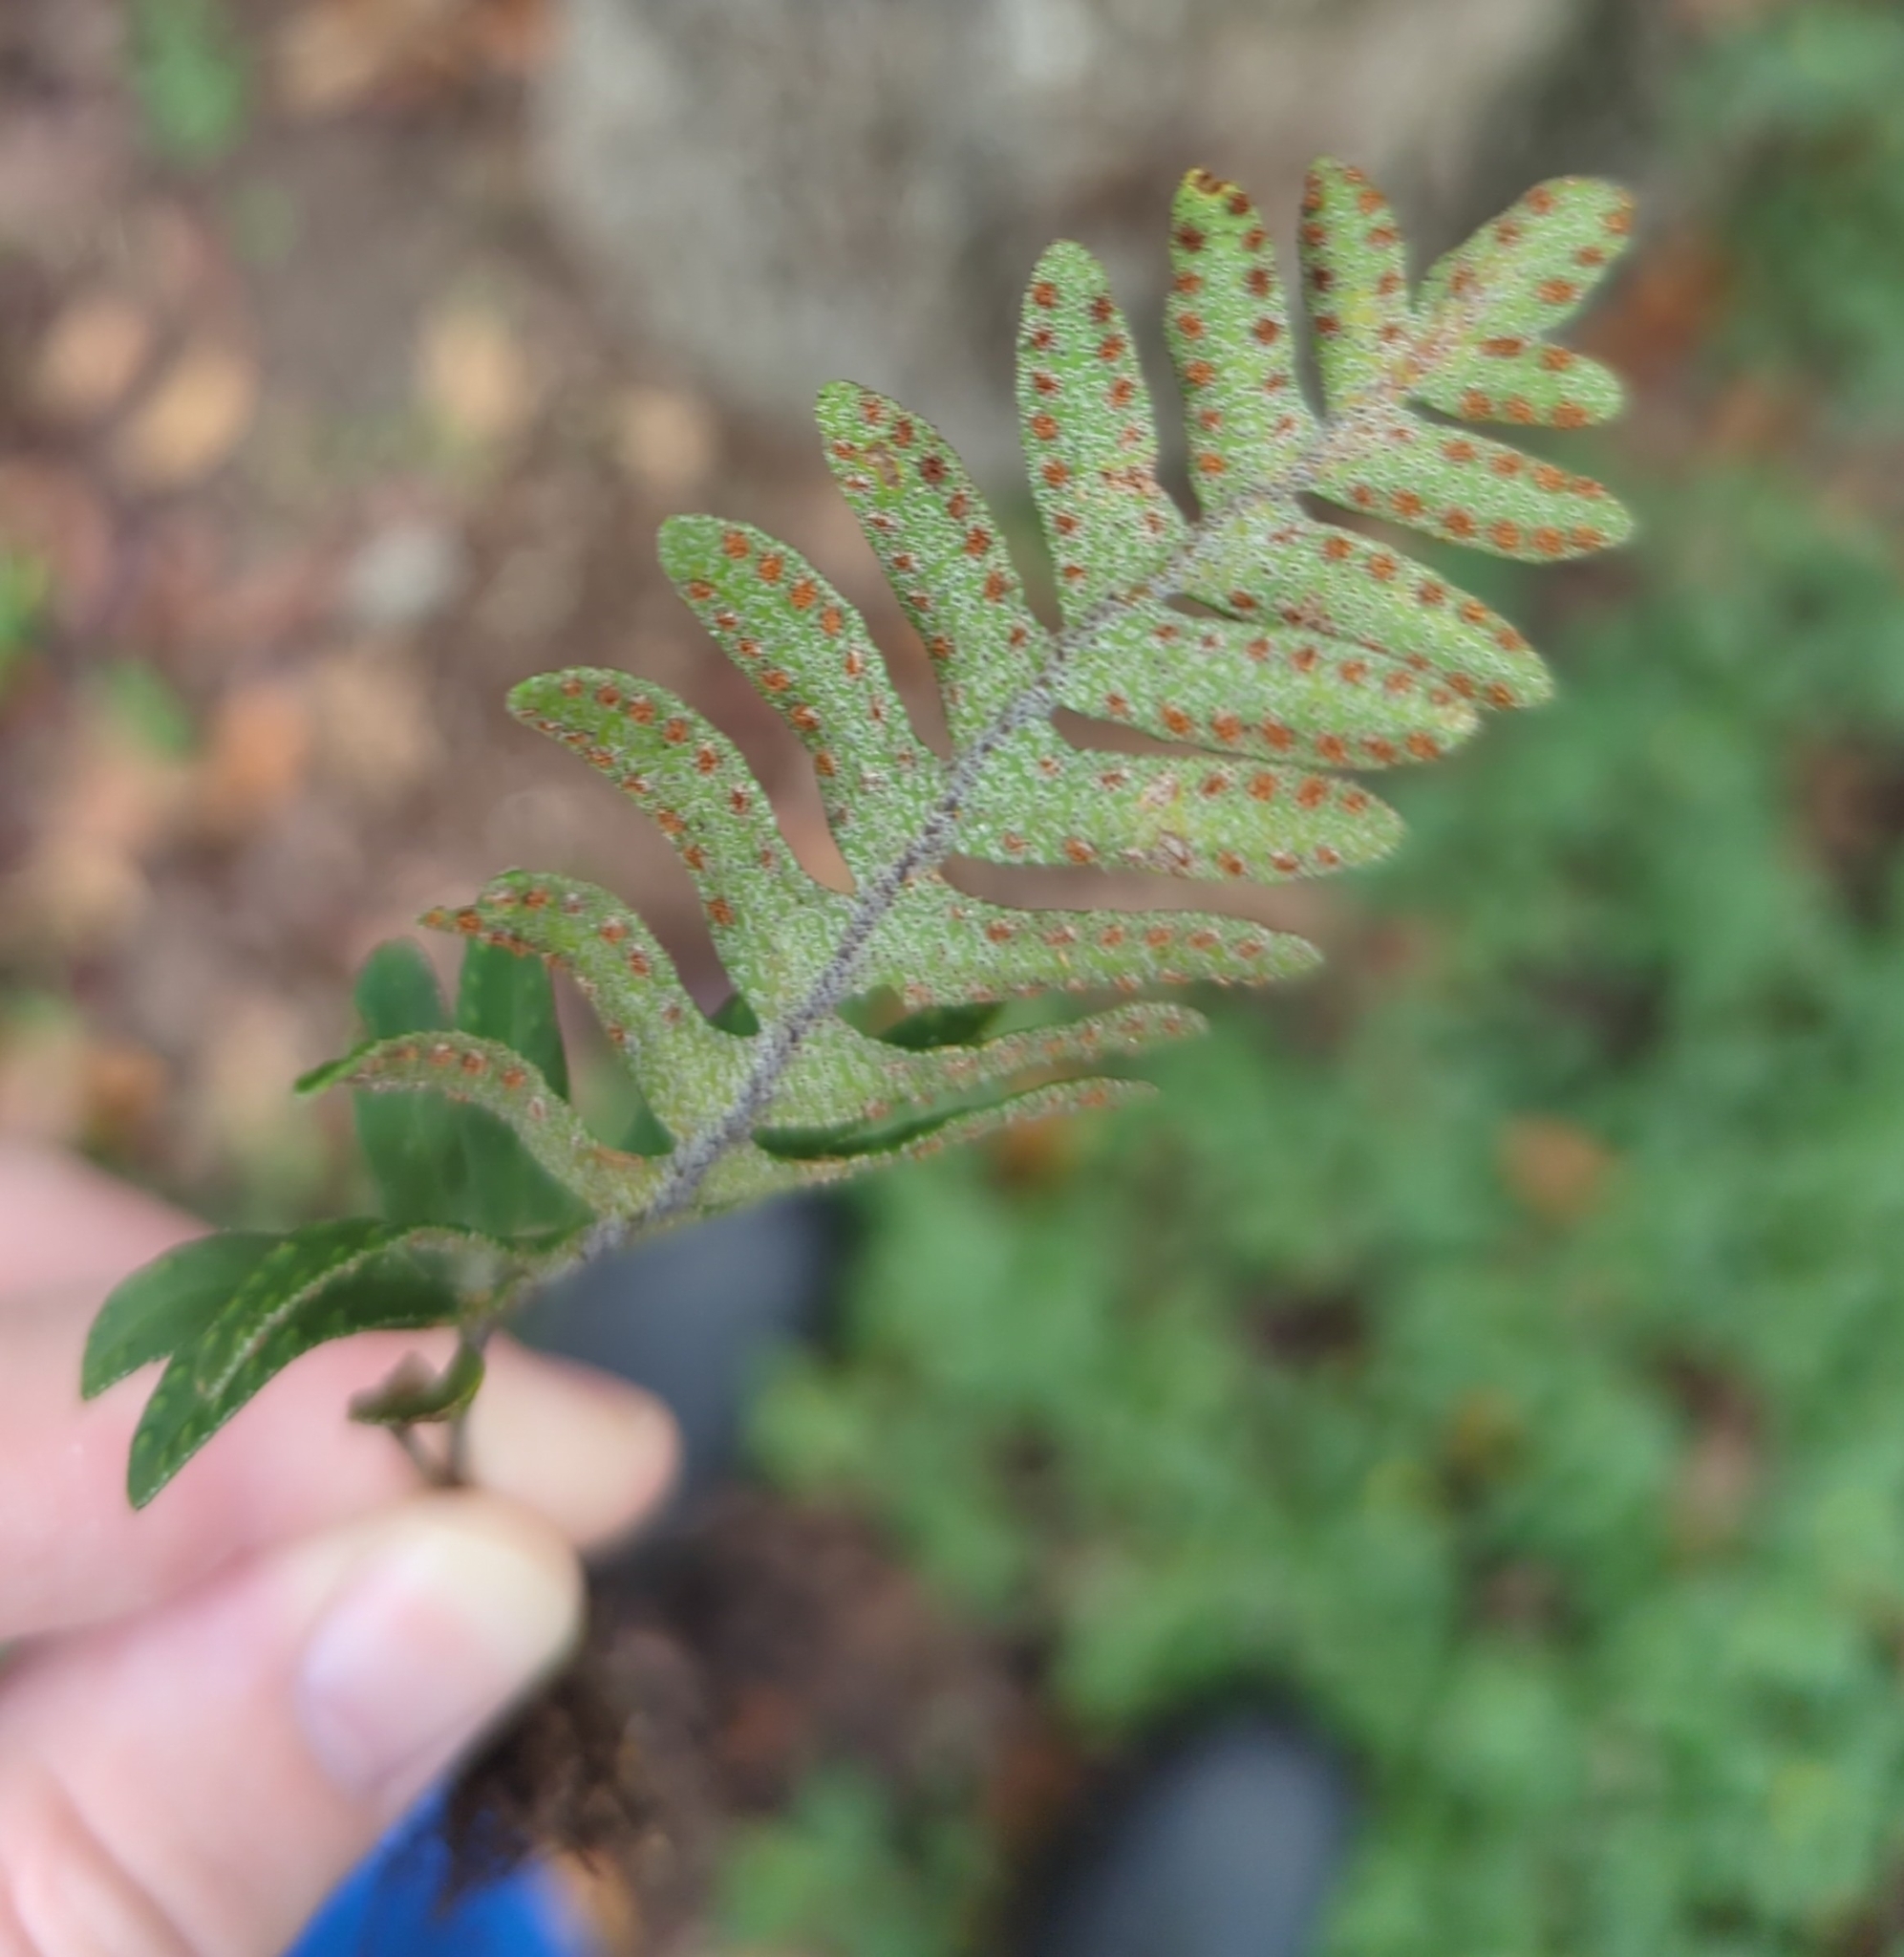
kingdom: Plantae
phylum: Tracheophyta
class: Polypodiopsida
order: Polypodiales
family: Polypodiaceae
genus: Pleopeltis
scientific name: Pleopeltis michauxiana
